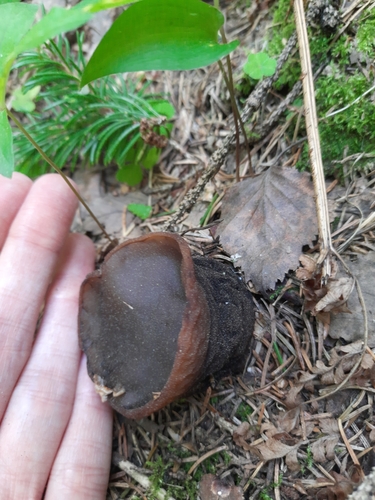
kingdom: Fungi
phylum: Ascomycota
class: Pezizomycetes
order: Pezizales
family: Sarcosomataceae
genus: Sarcosoma
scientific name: Sarcosoma globosum
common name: Charred-pancake cup
